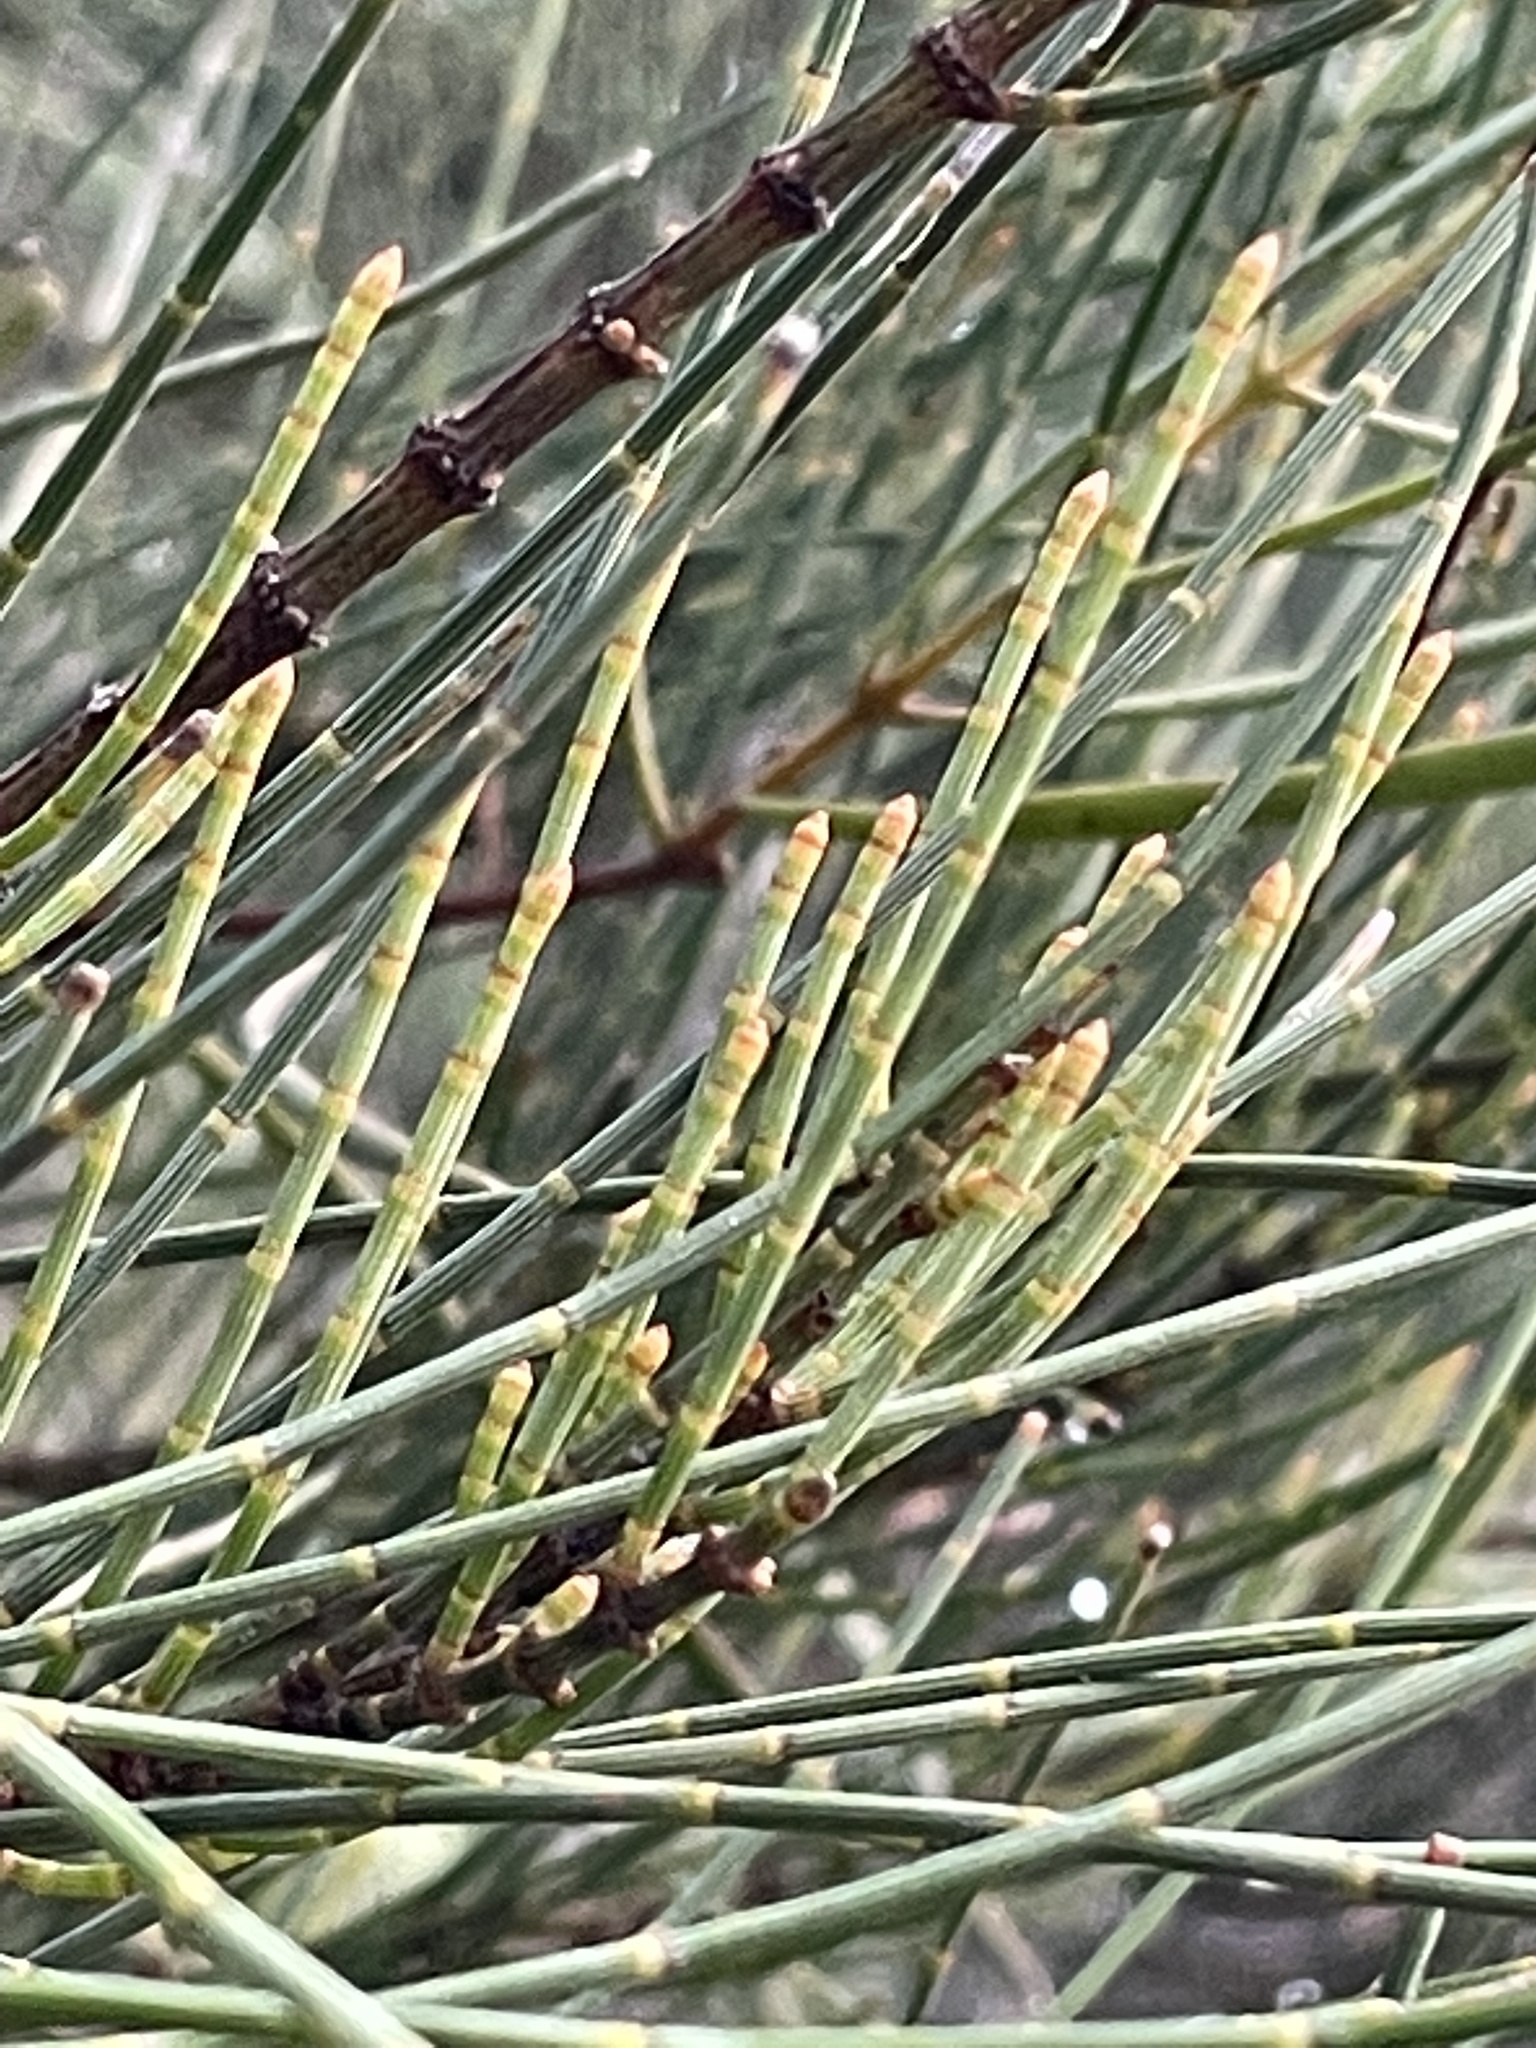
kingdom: Plantae
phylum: Tracheophyta
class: Magnoliopsida
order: Fagales
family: Casuarinaceae
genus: Allocasuarina
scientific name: Allocasuarina luehmannii
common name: Bull-oak
